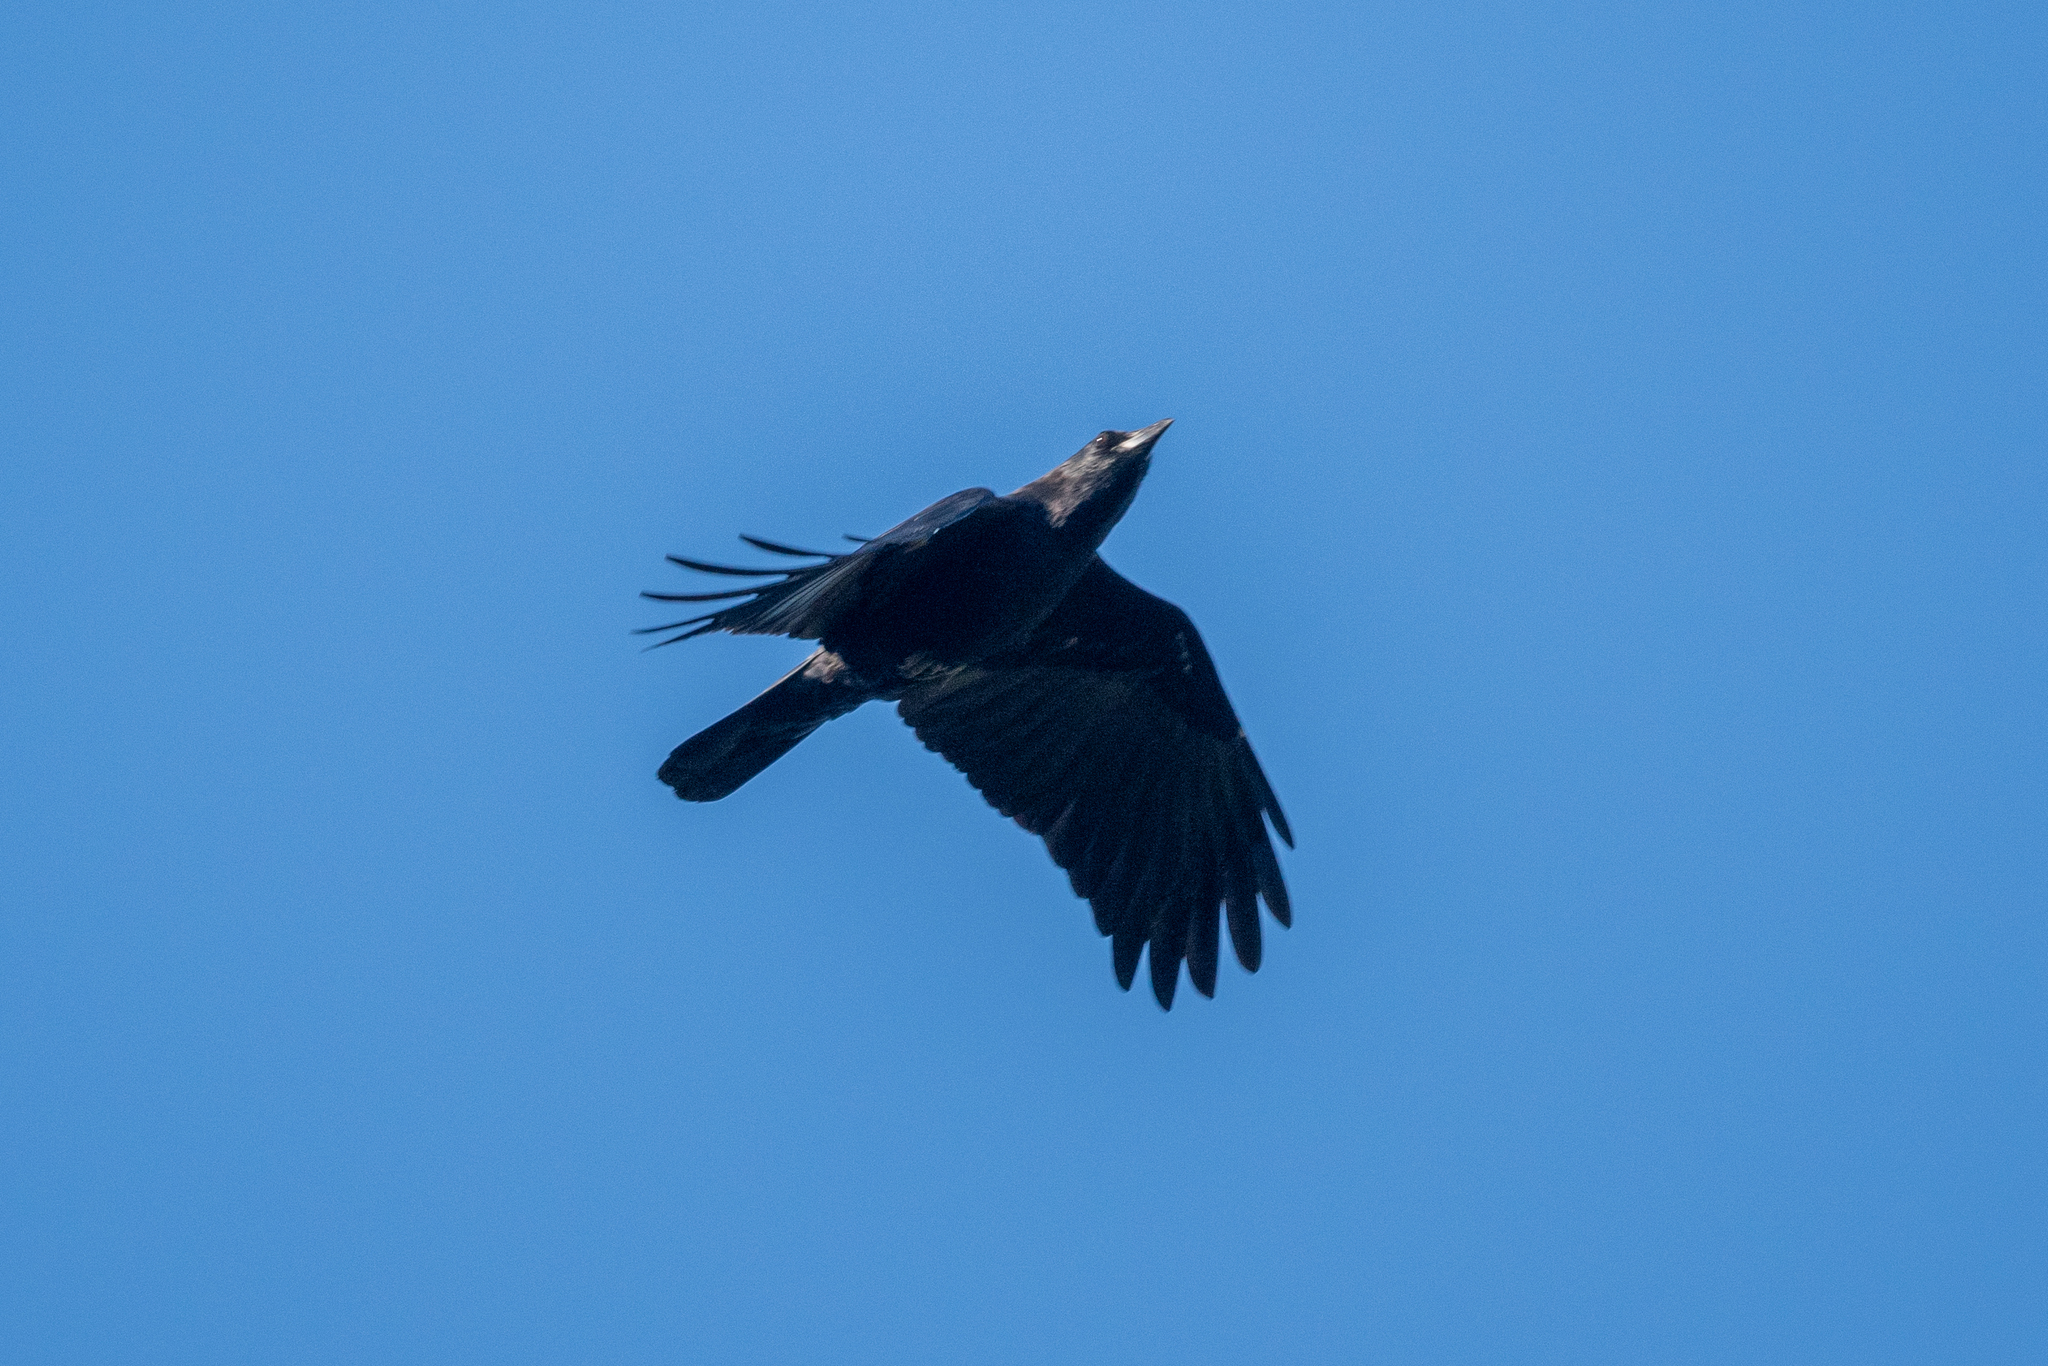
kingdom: Animalia
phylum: Chordata
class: Aves
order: Passeriformes
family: Corvidae
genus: Corvus
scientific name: Corvus corax
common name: Common raven
